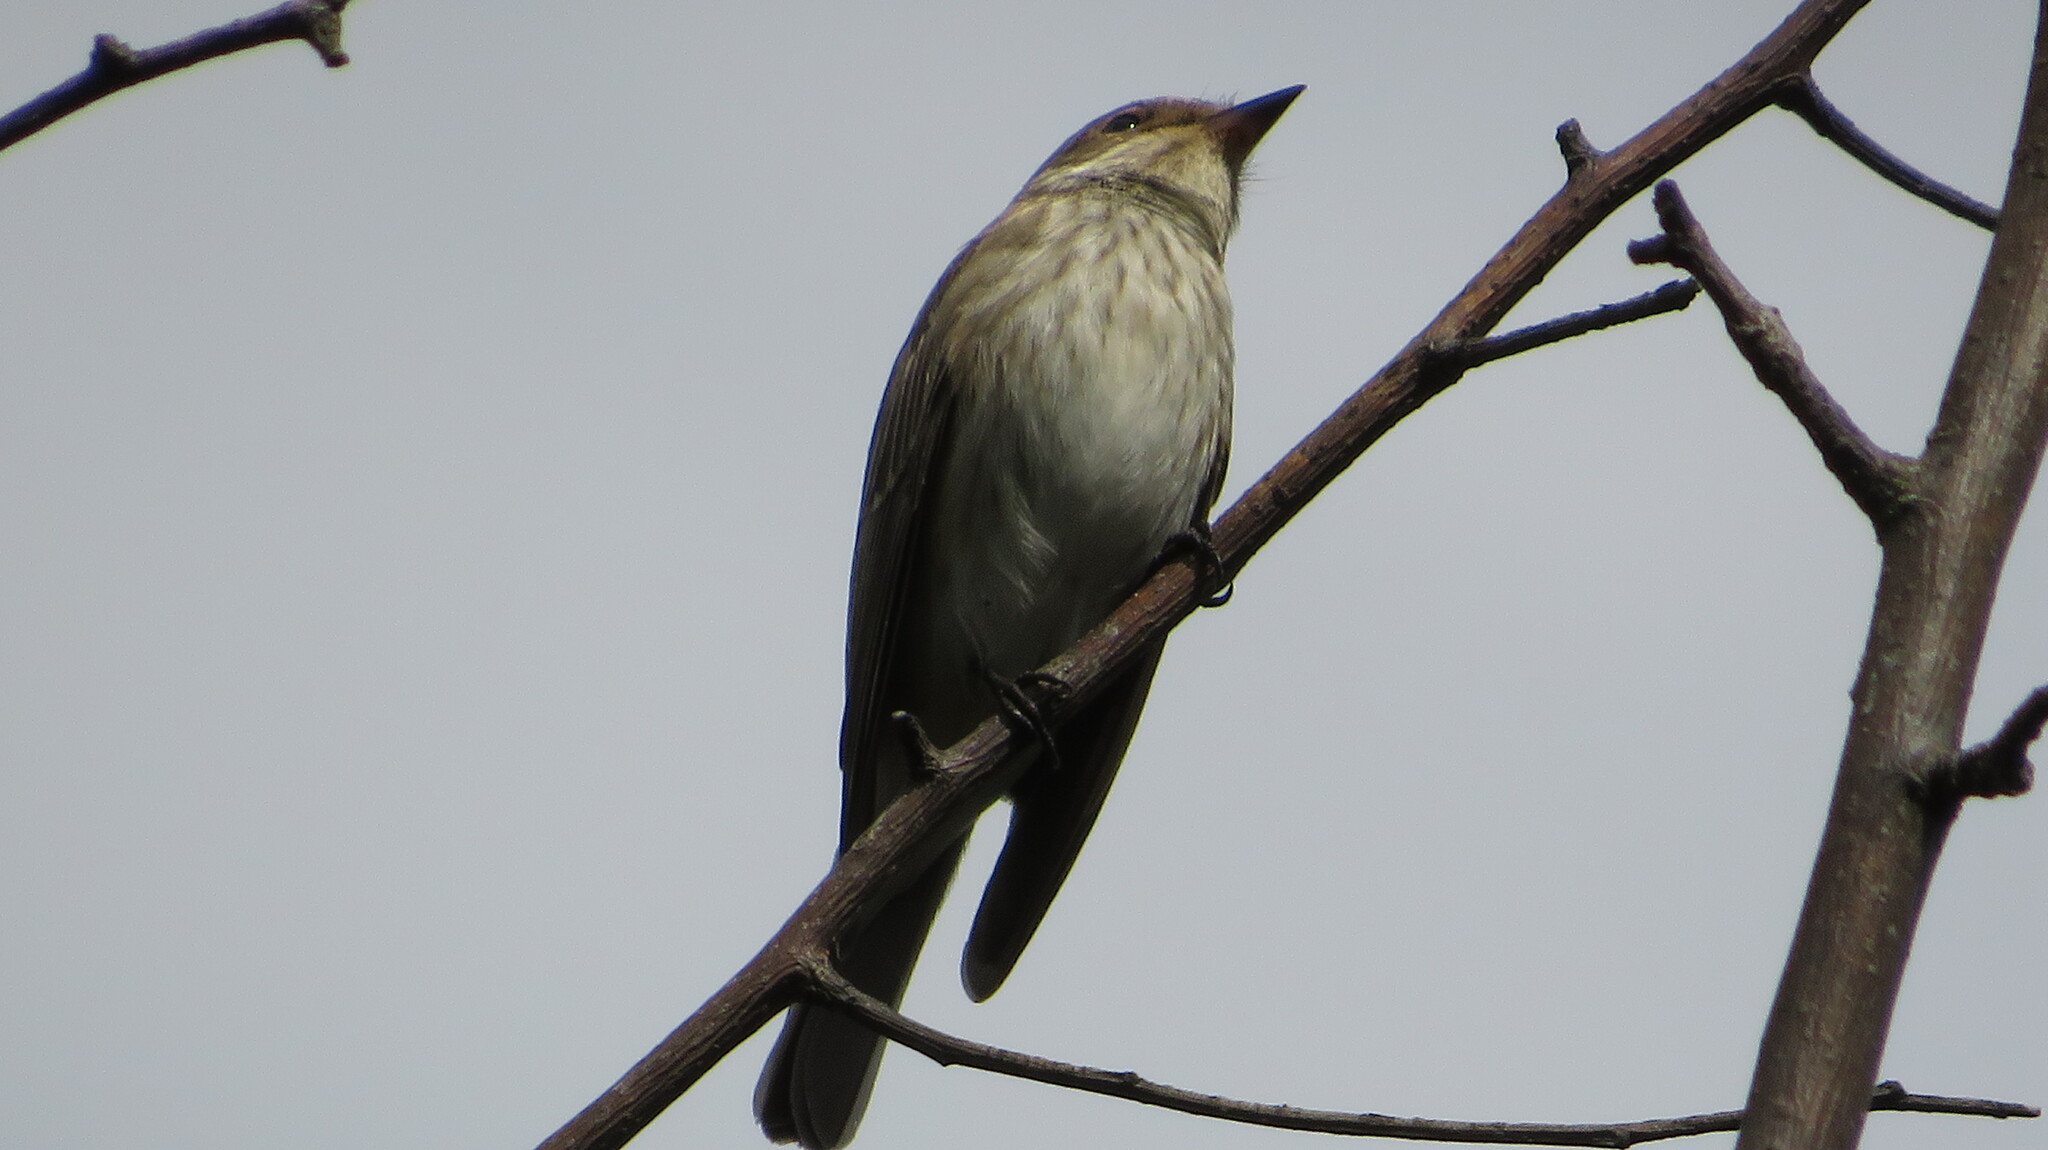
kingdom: Animalia
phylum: Chordata
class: Aves
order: Passeriformes
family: Muscicapidae
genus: Muscicapa
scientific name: Muscicapa striata
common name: Spotted flycatcher
